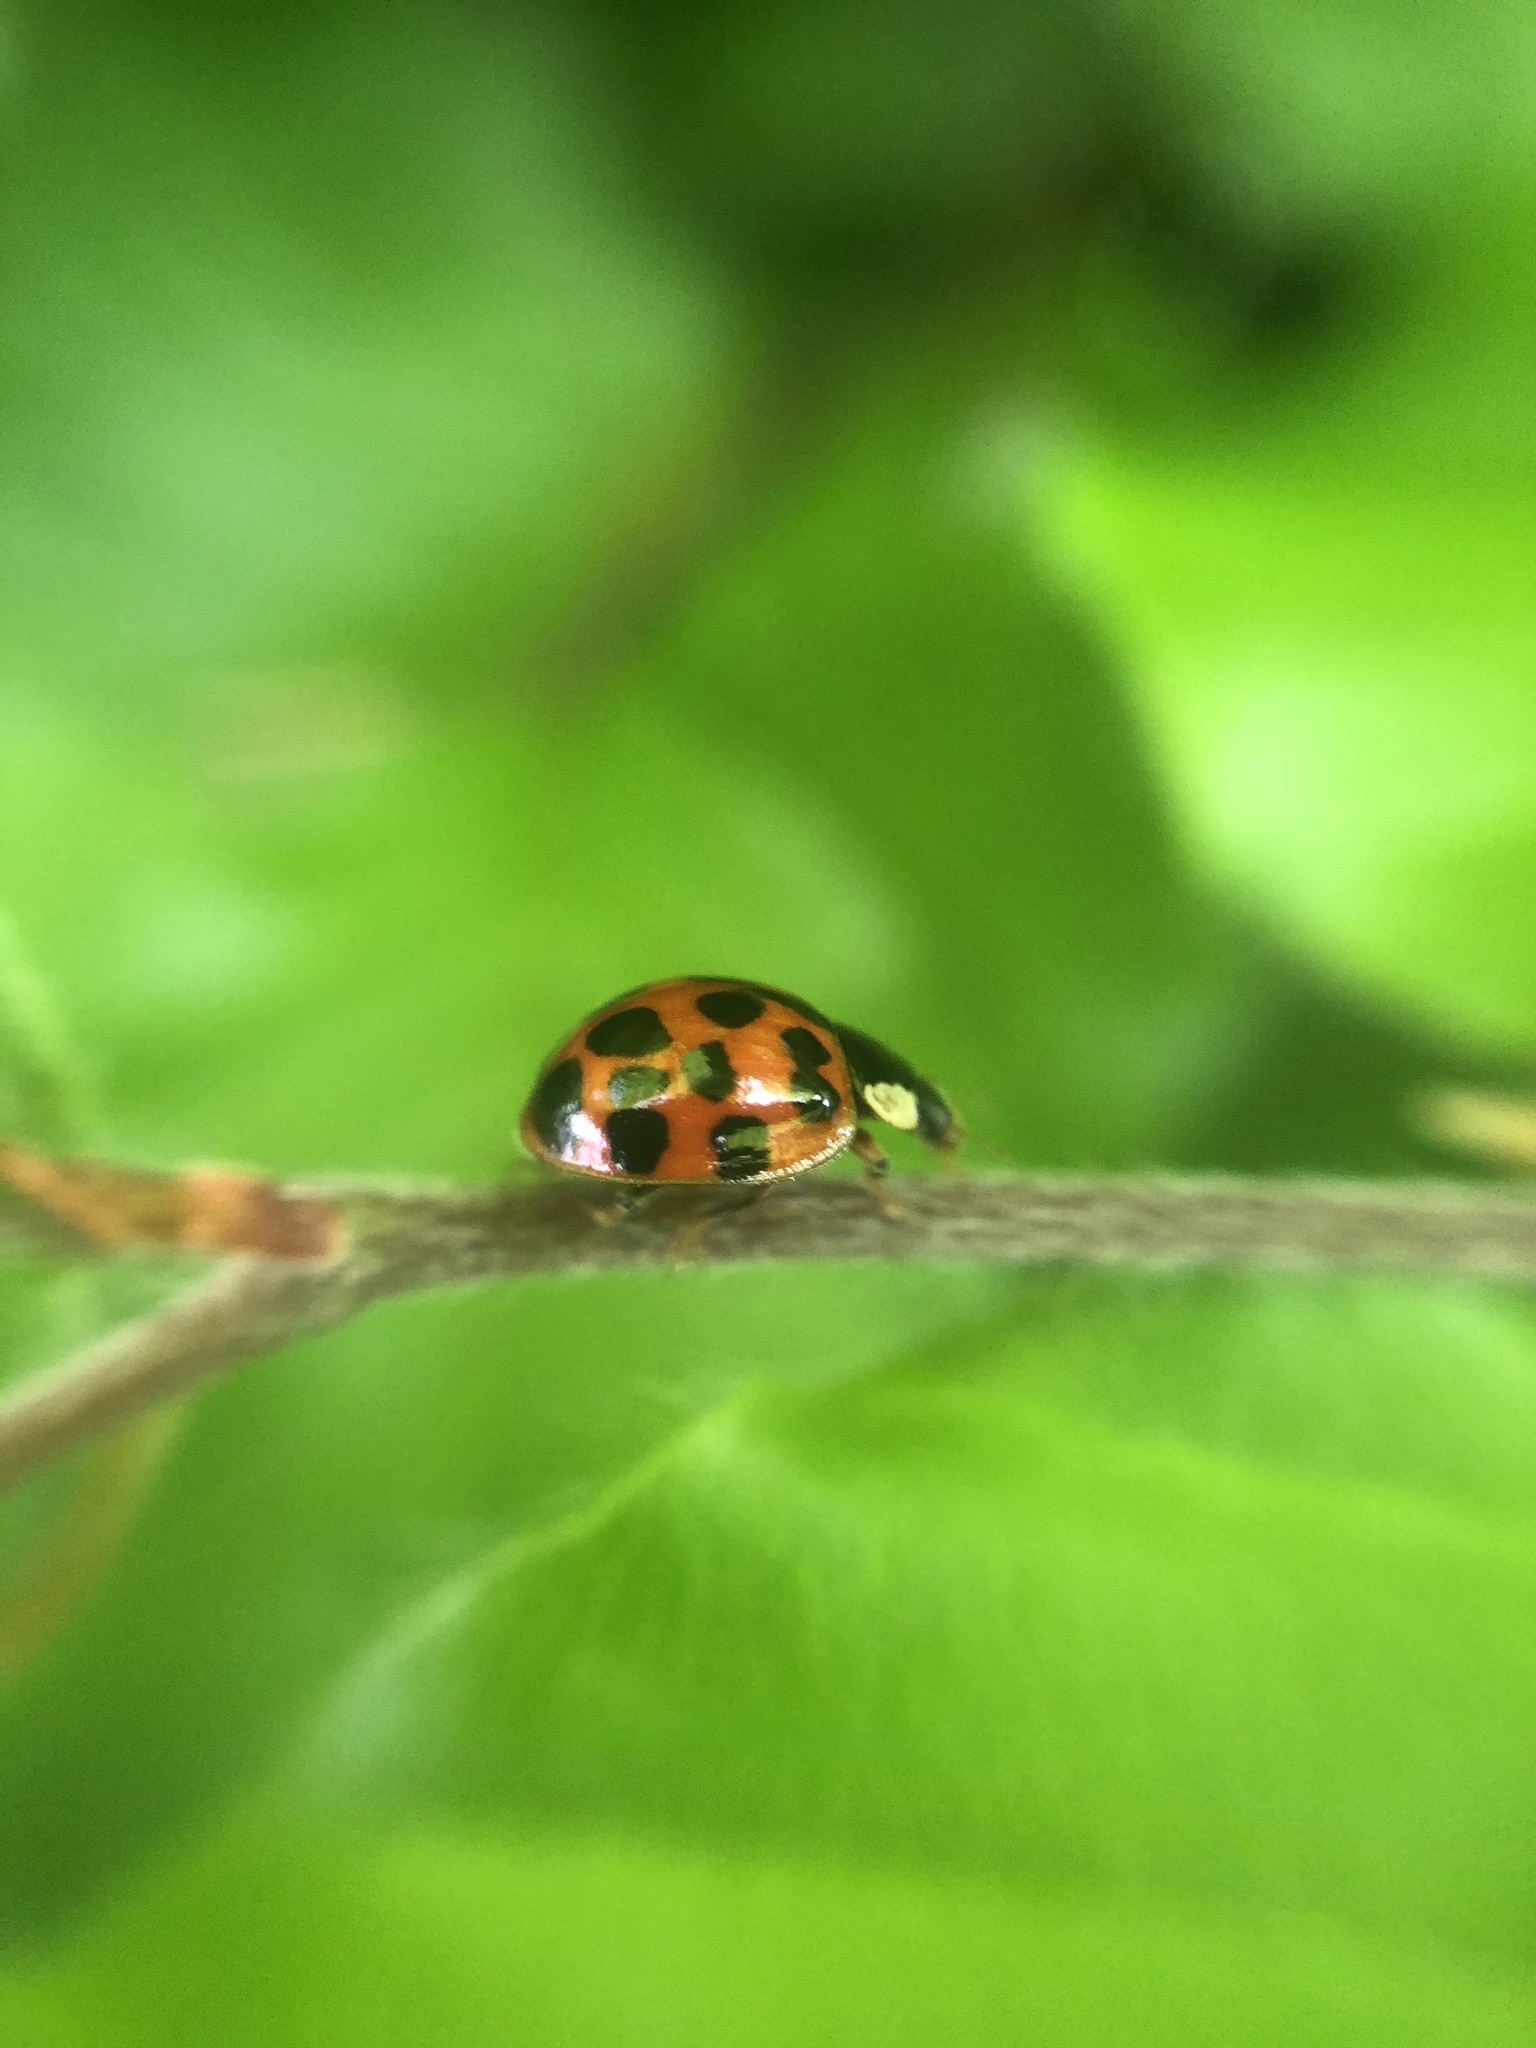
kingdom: Animalia
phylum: Arthropoda
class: Insecta
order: Coleoptera
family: Coccinellidae
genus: Harmonia
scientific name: Harmonia axyridis
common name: Harlequin ladybird
